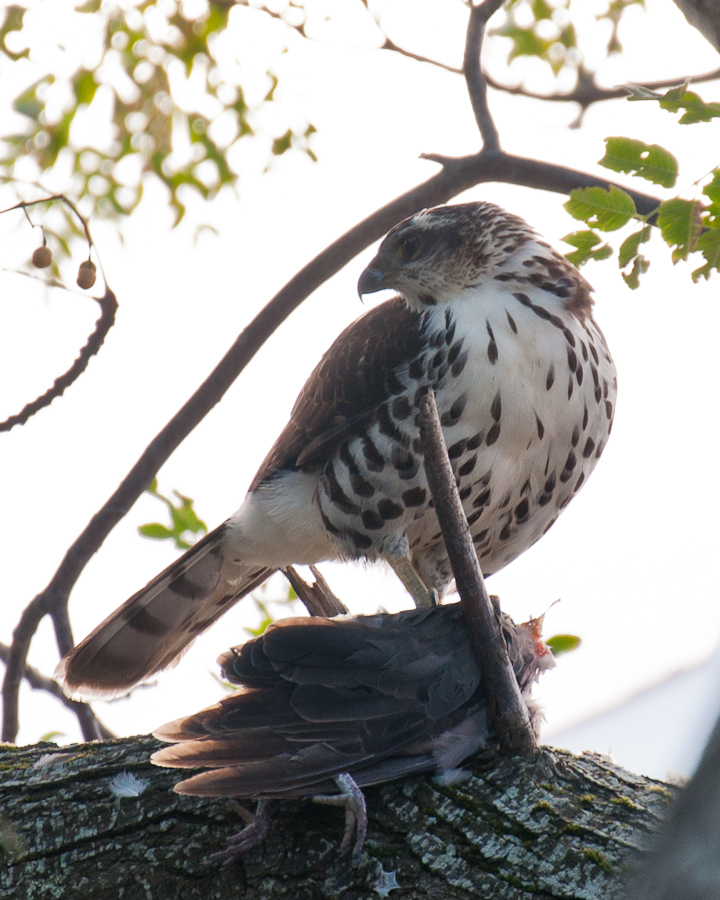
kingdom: Animalia
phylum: Chordata
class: Aves
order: Accipitriformes
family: Accipitridae
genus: Accipiter
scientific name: Accipiter tachiro
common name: African goshawk
